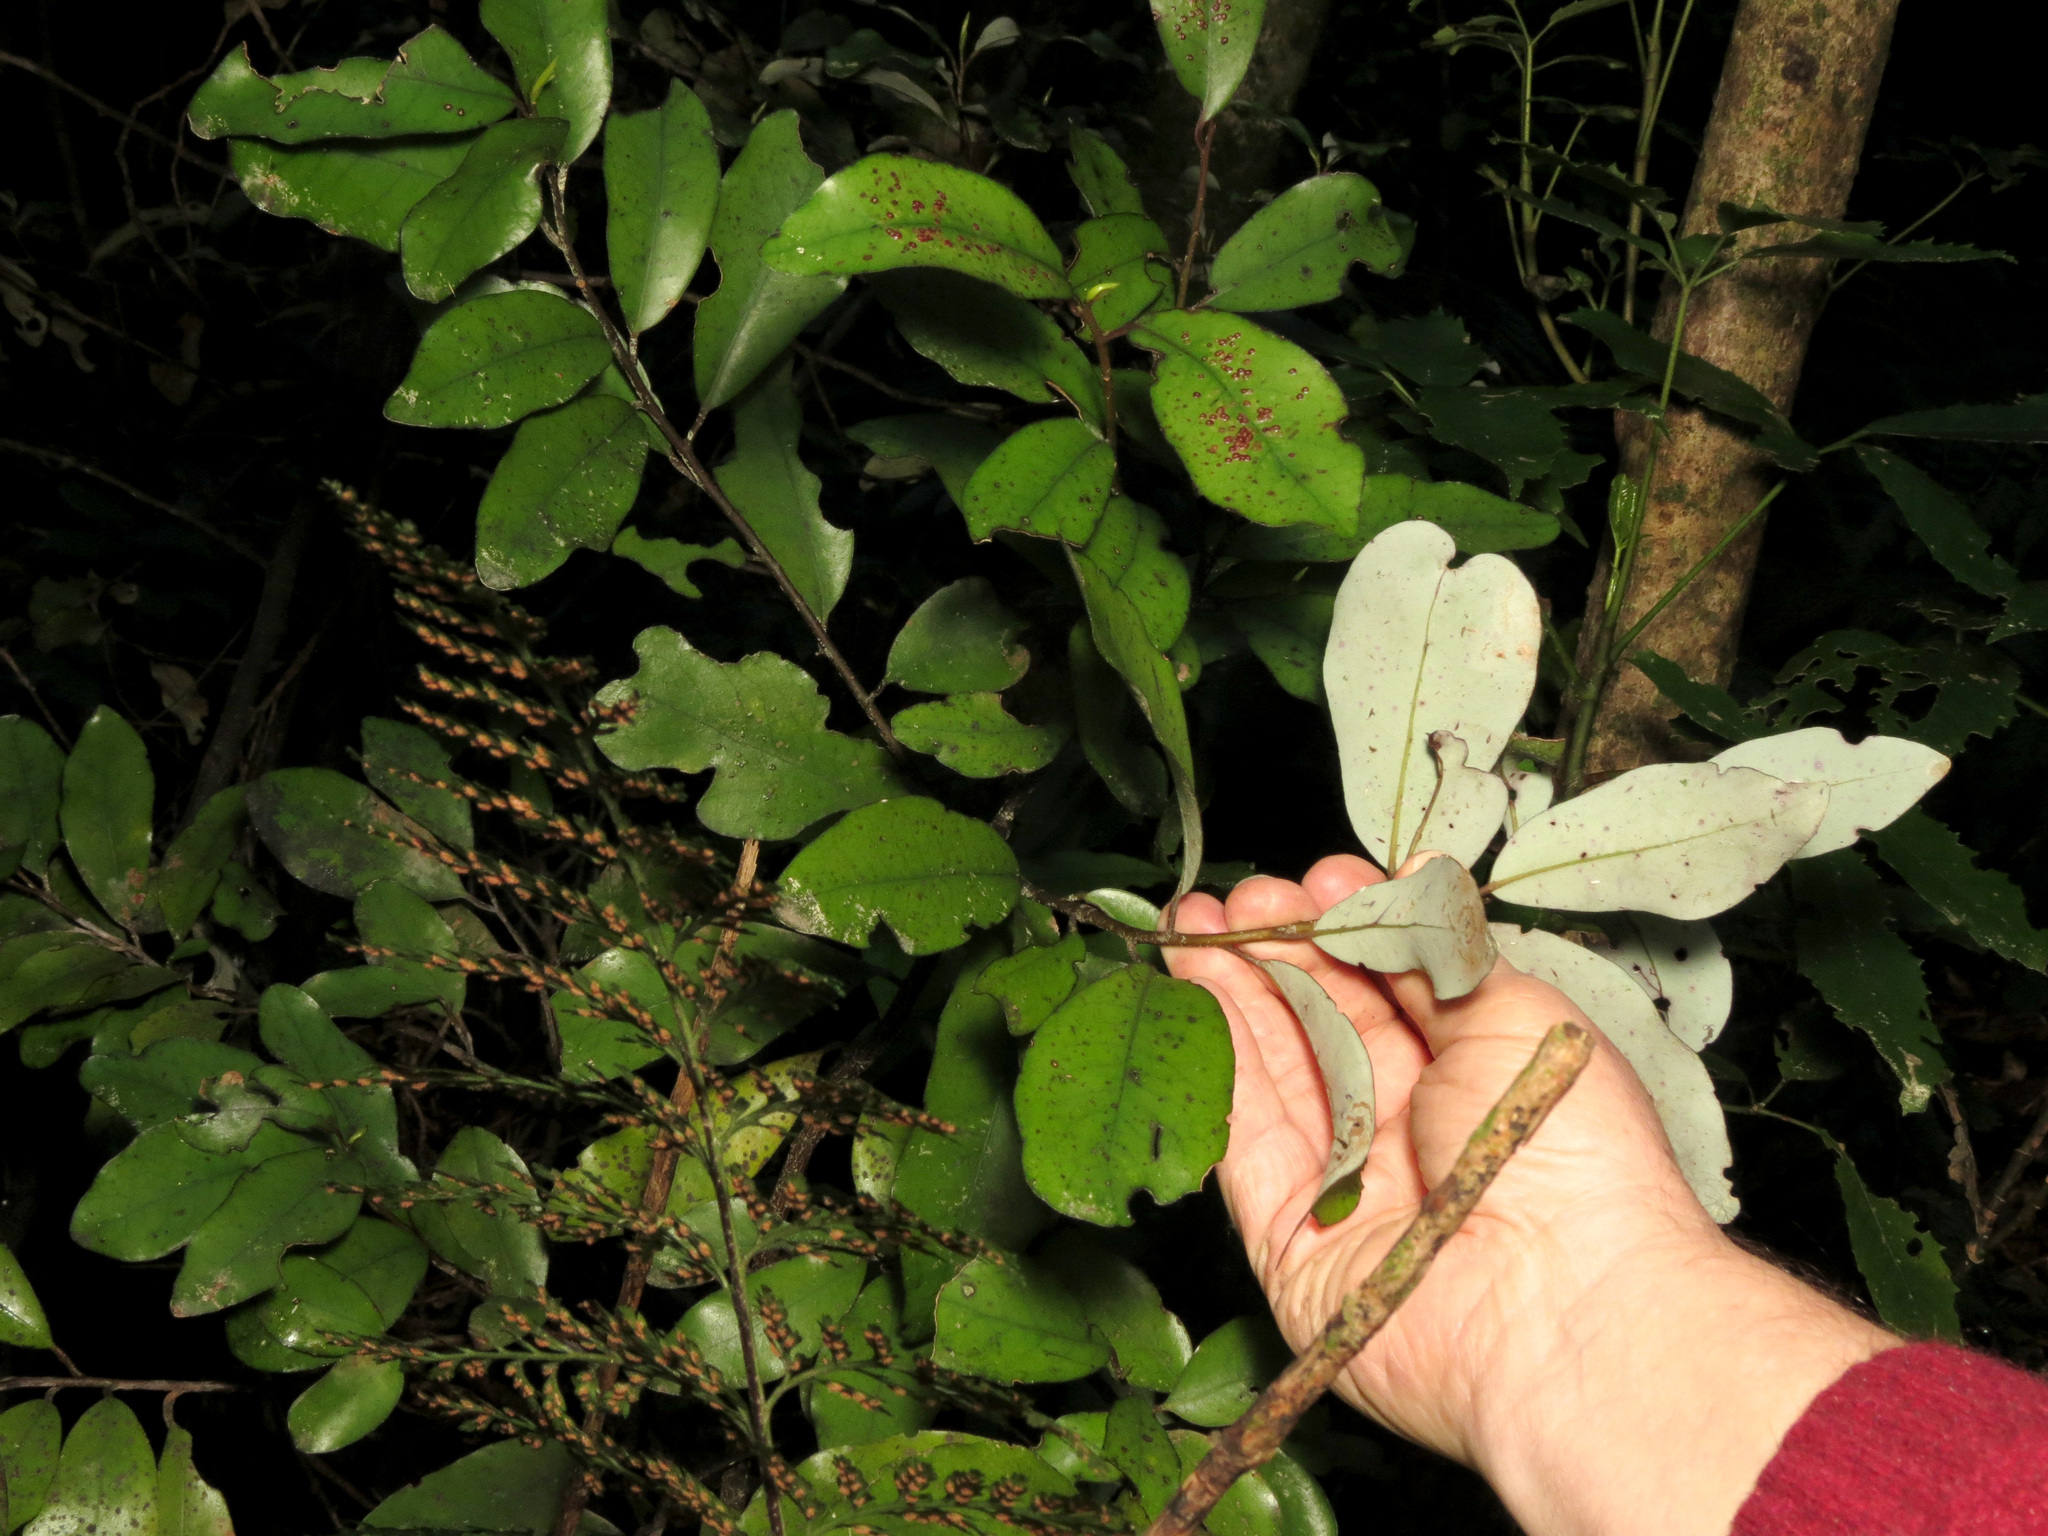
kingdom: Plantae
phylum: Tracheophyta
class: Magnoliopsida
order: Canellales
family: Winteraceae
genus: Pseudowintera
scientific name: Pseudowintera colorata
